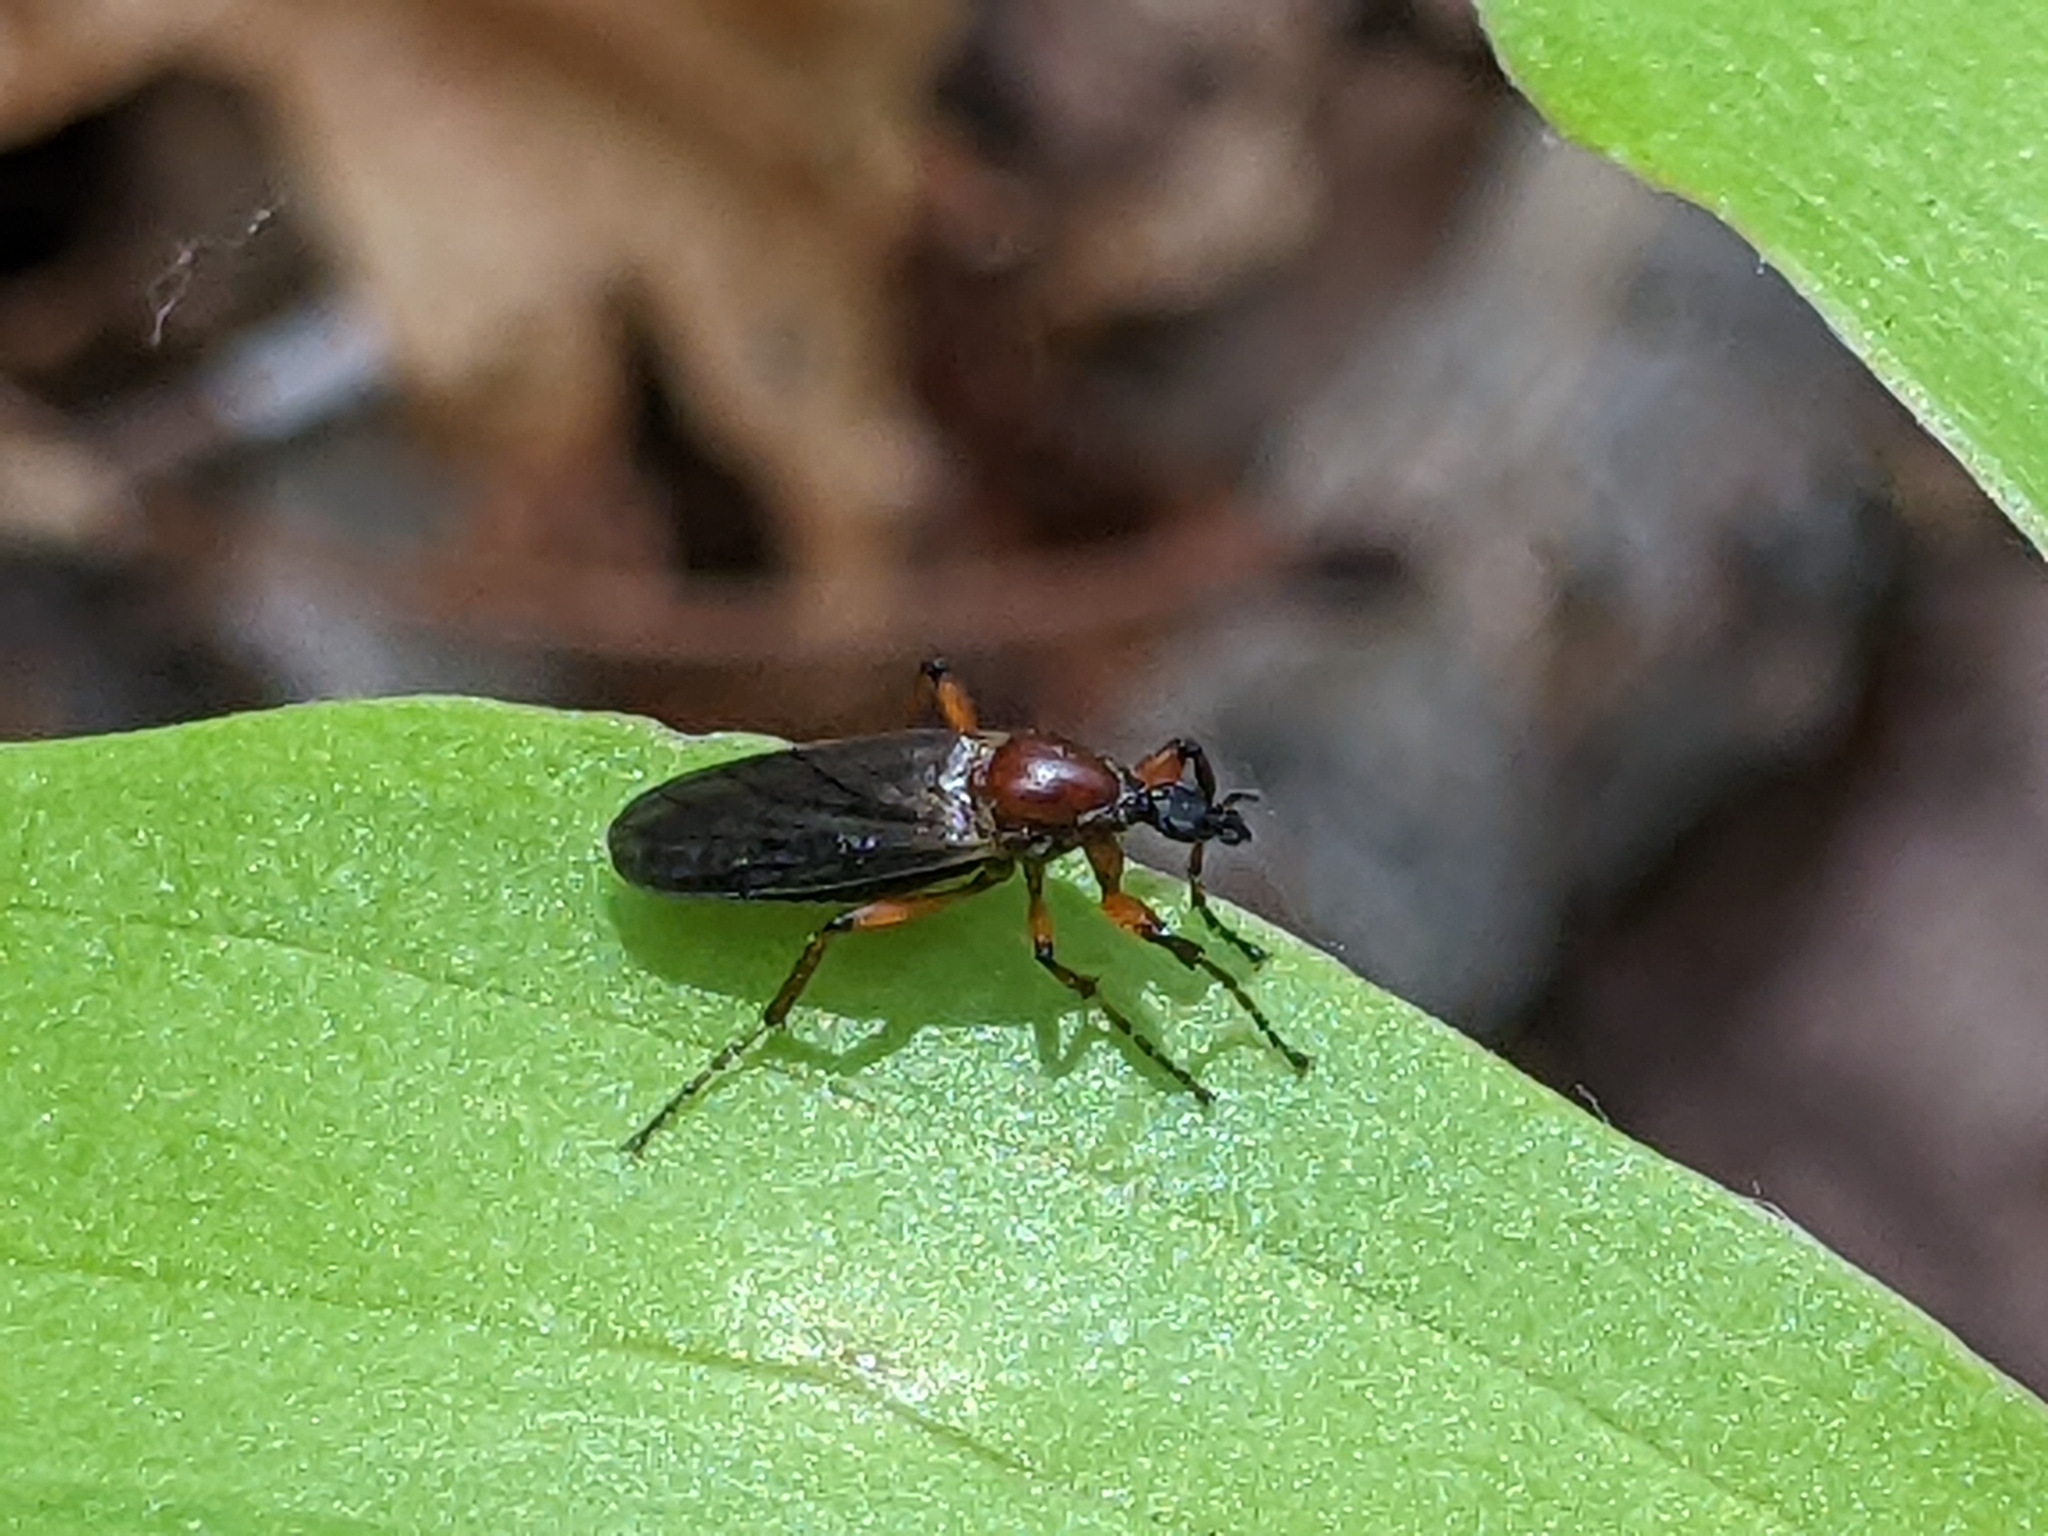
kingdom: Animalia
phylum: Arthropoda
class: Insecta
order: Diptera
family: Bibionidae
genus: Bibio
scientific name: Bibio articulatus
